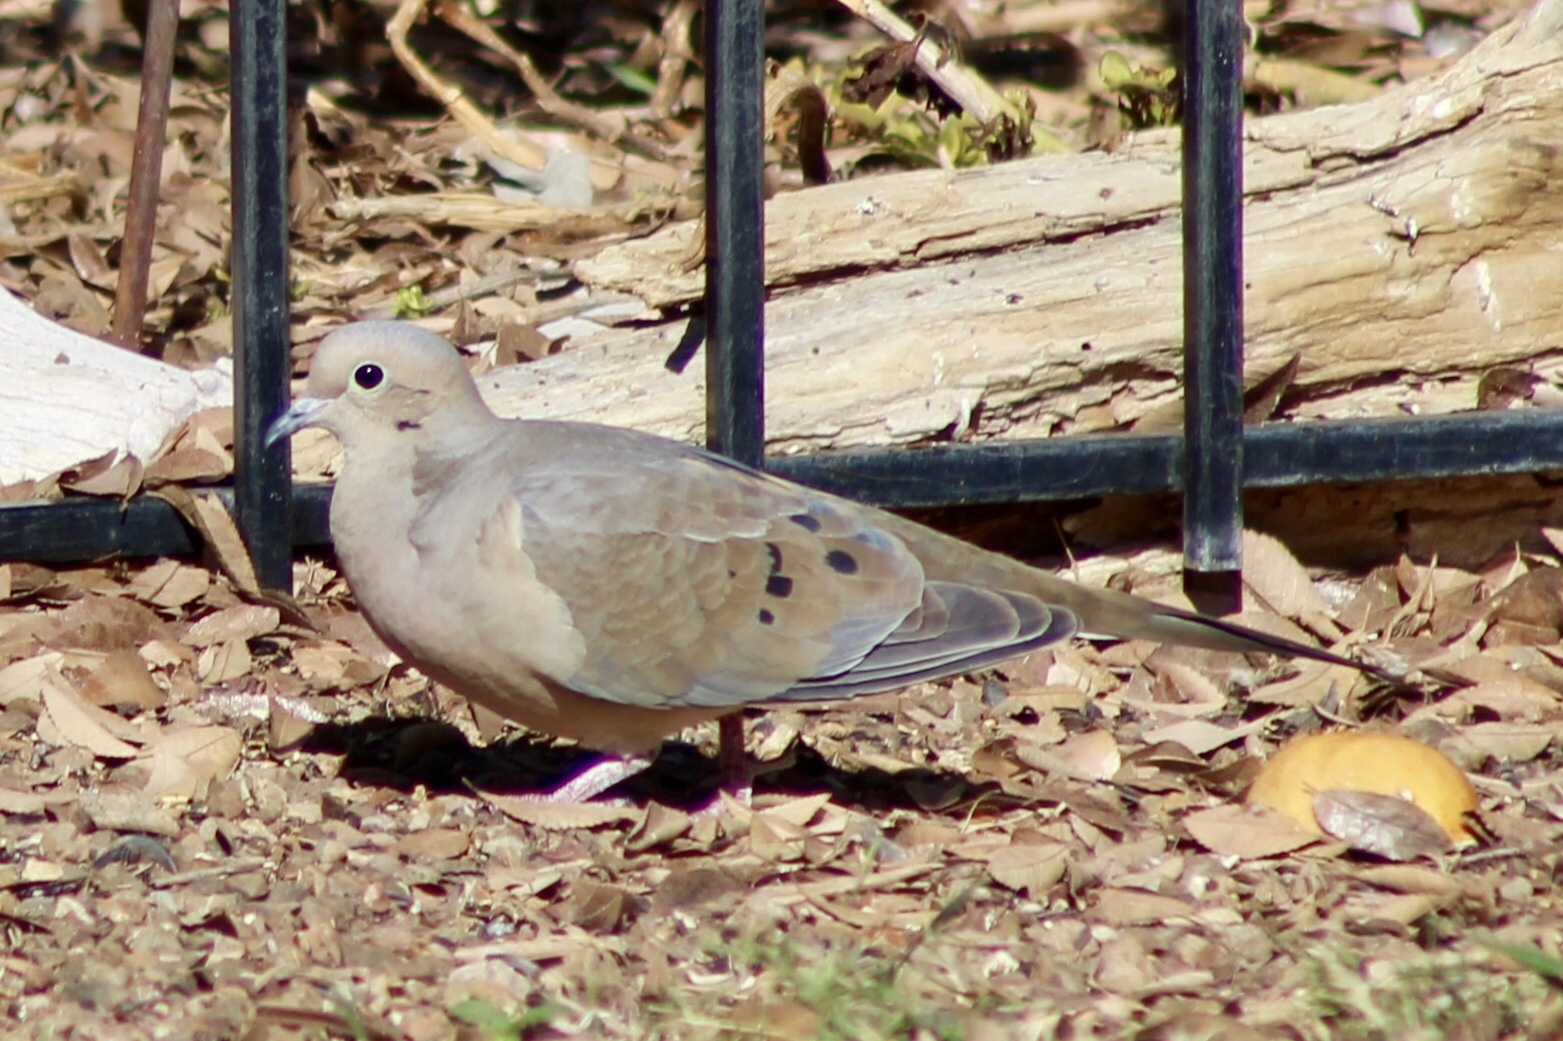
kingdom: Animalia
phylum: Chordata
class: Aves
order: Columbiformes
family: Columbidae
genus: Zenaida
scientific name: Zenaida macroura
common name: Mourning dove
